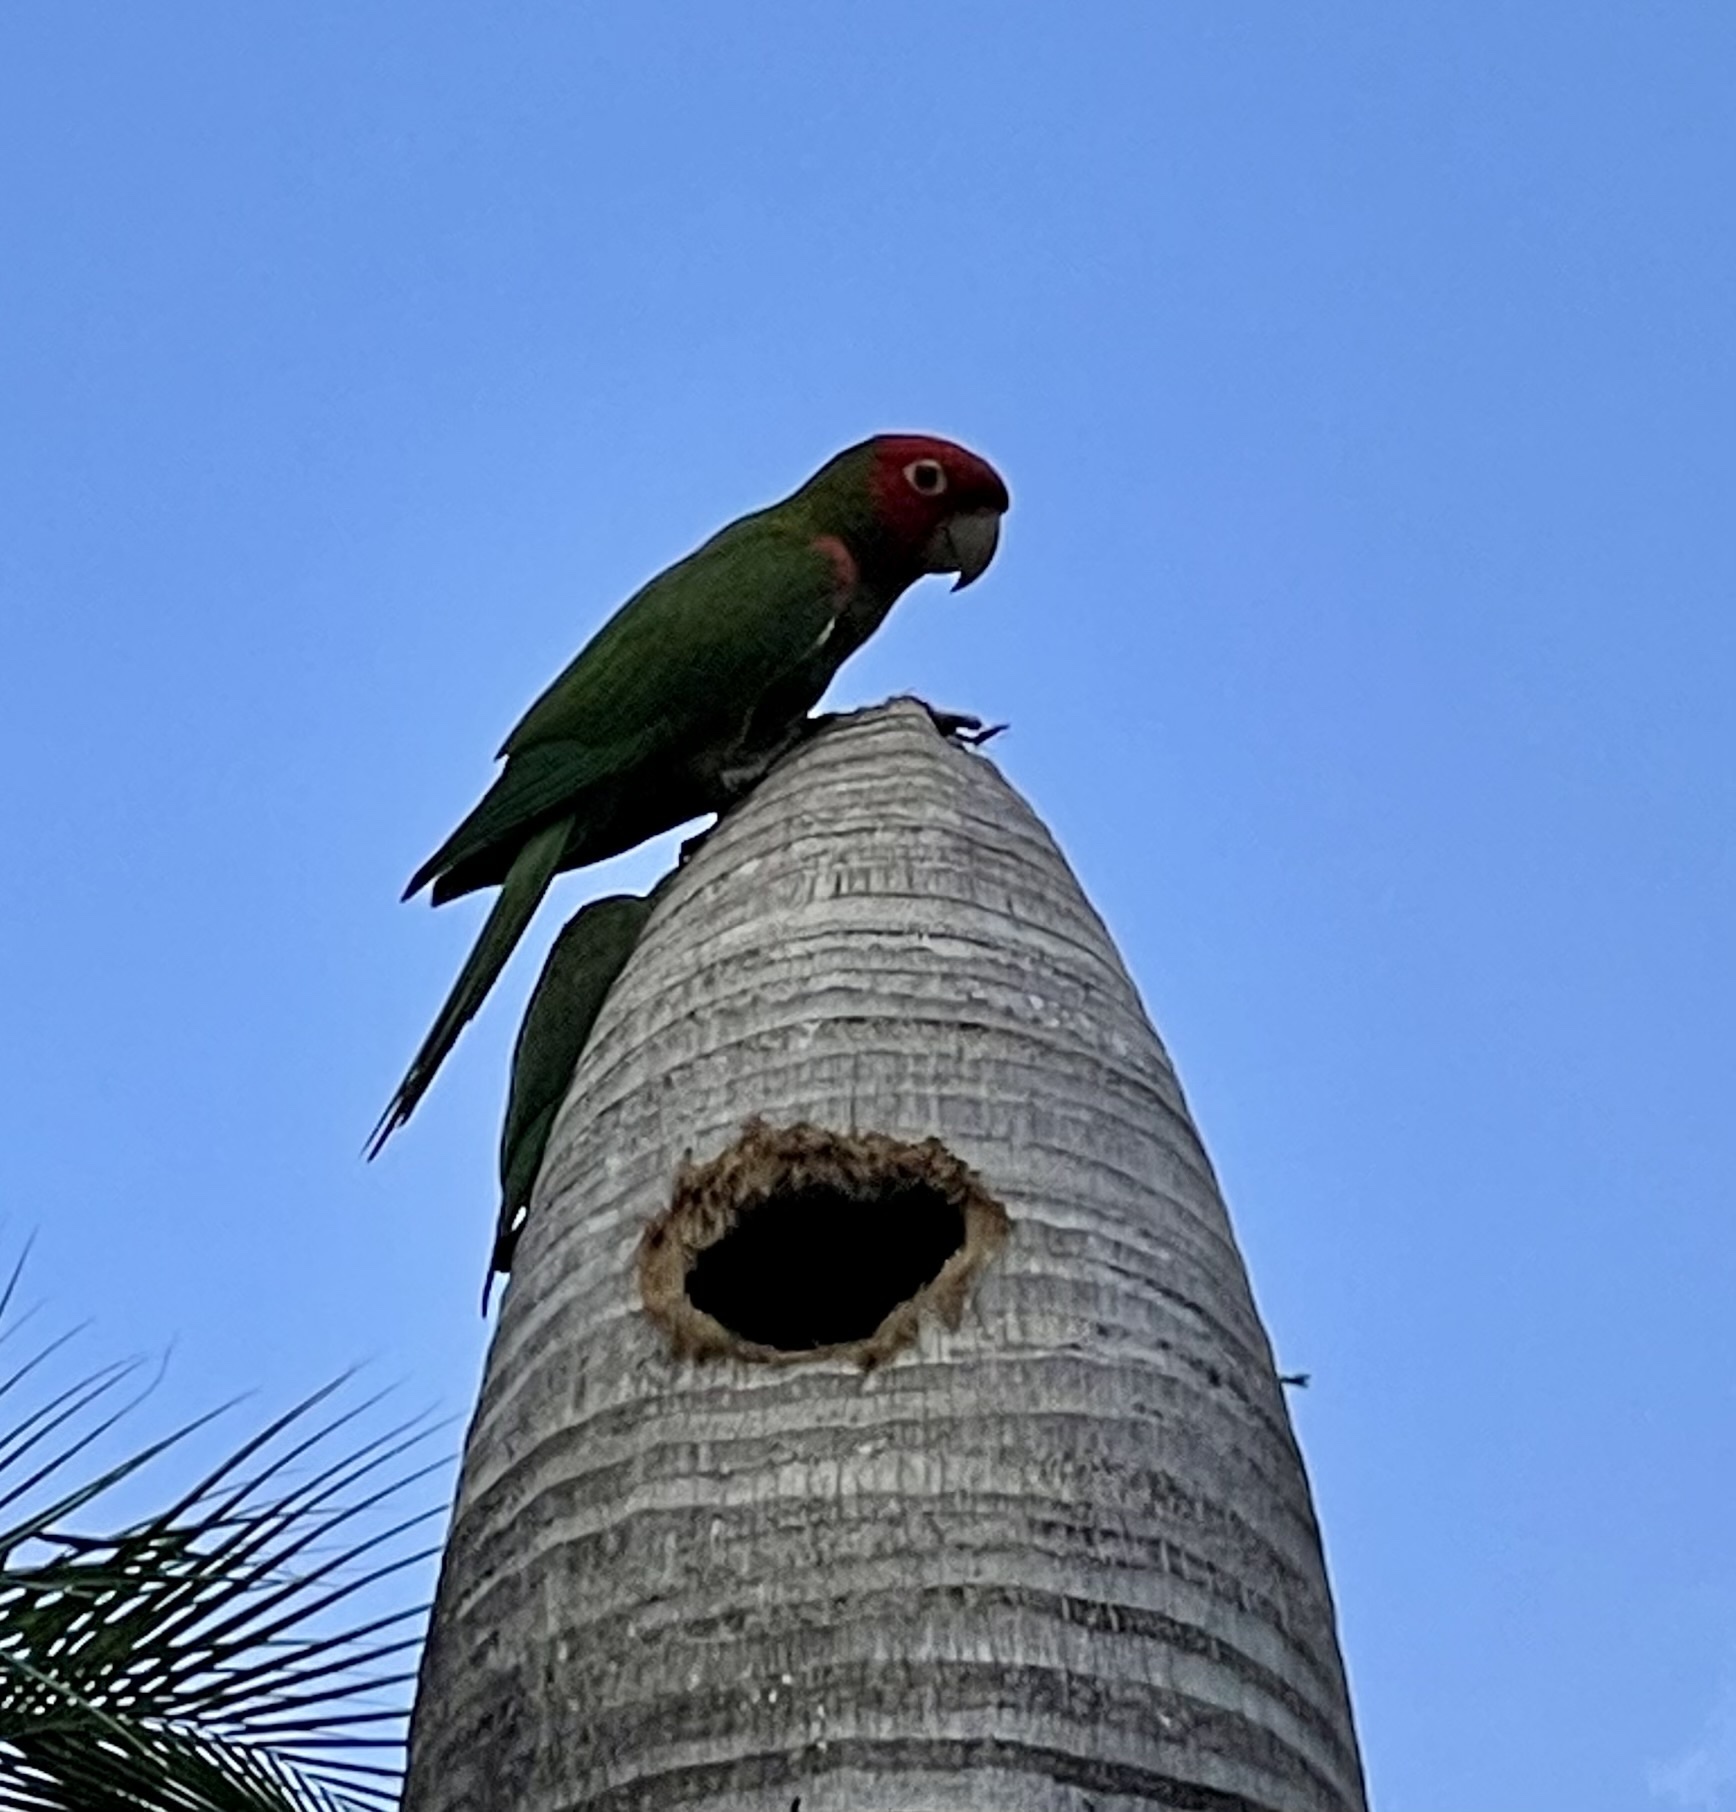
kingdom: Animalia
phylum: Chordata
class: Aves
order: Psittaciformes
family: Psittacidae
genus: Aratinga
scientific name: Aratinga erythrogenys
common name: Red-masked parakeet
